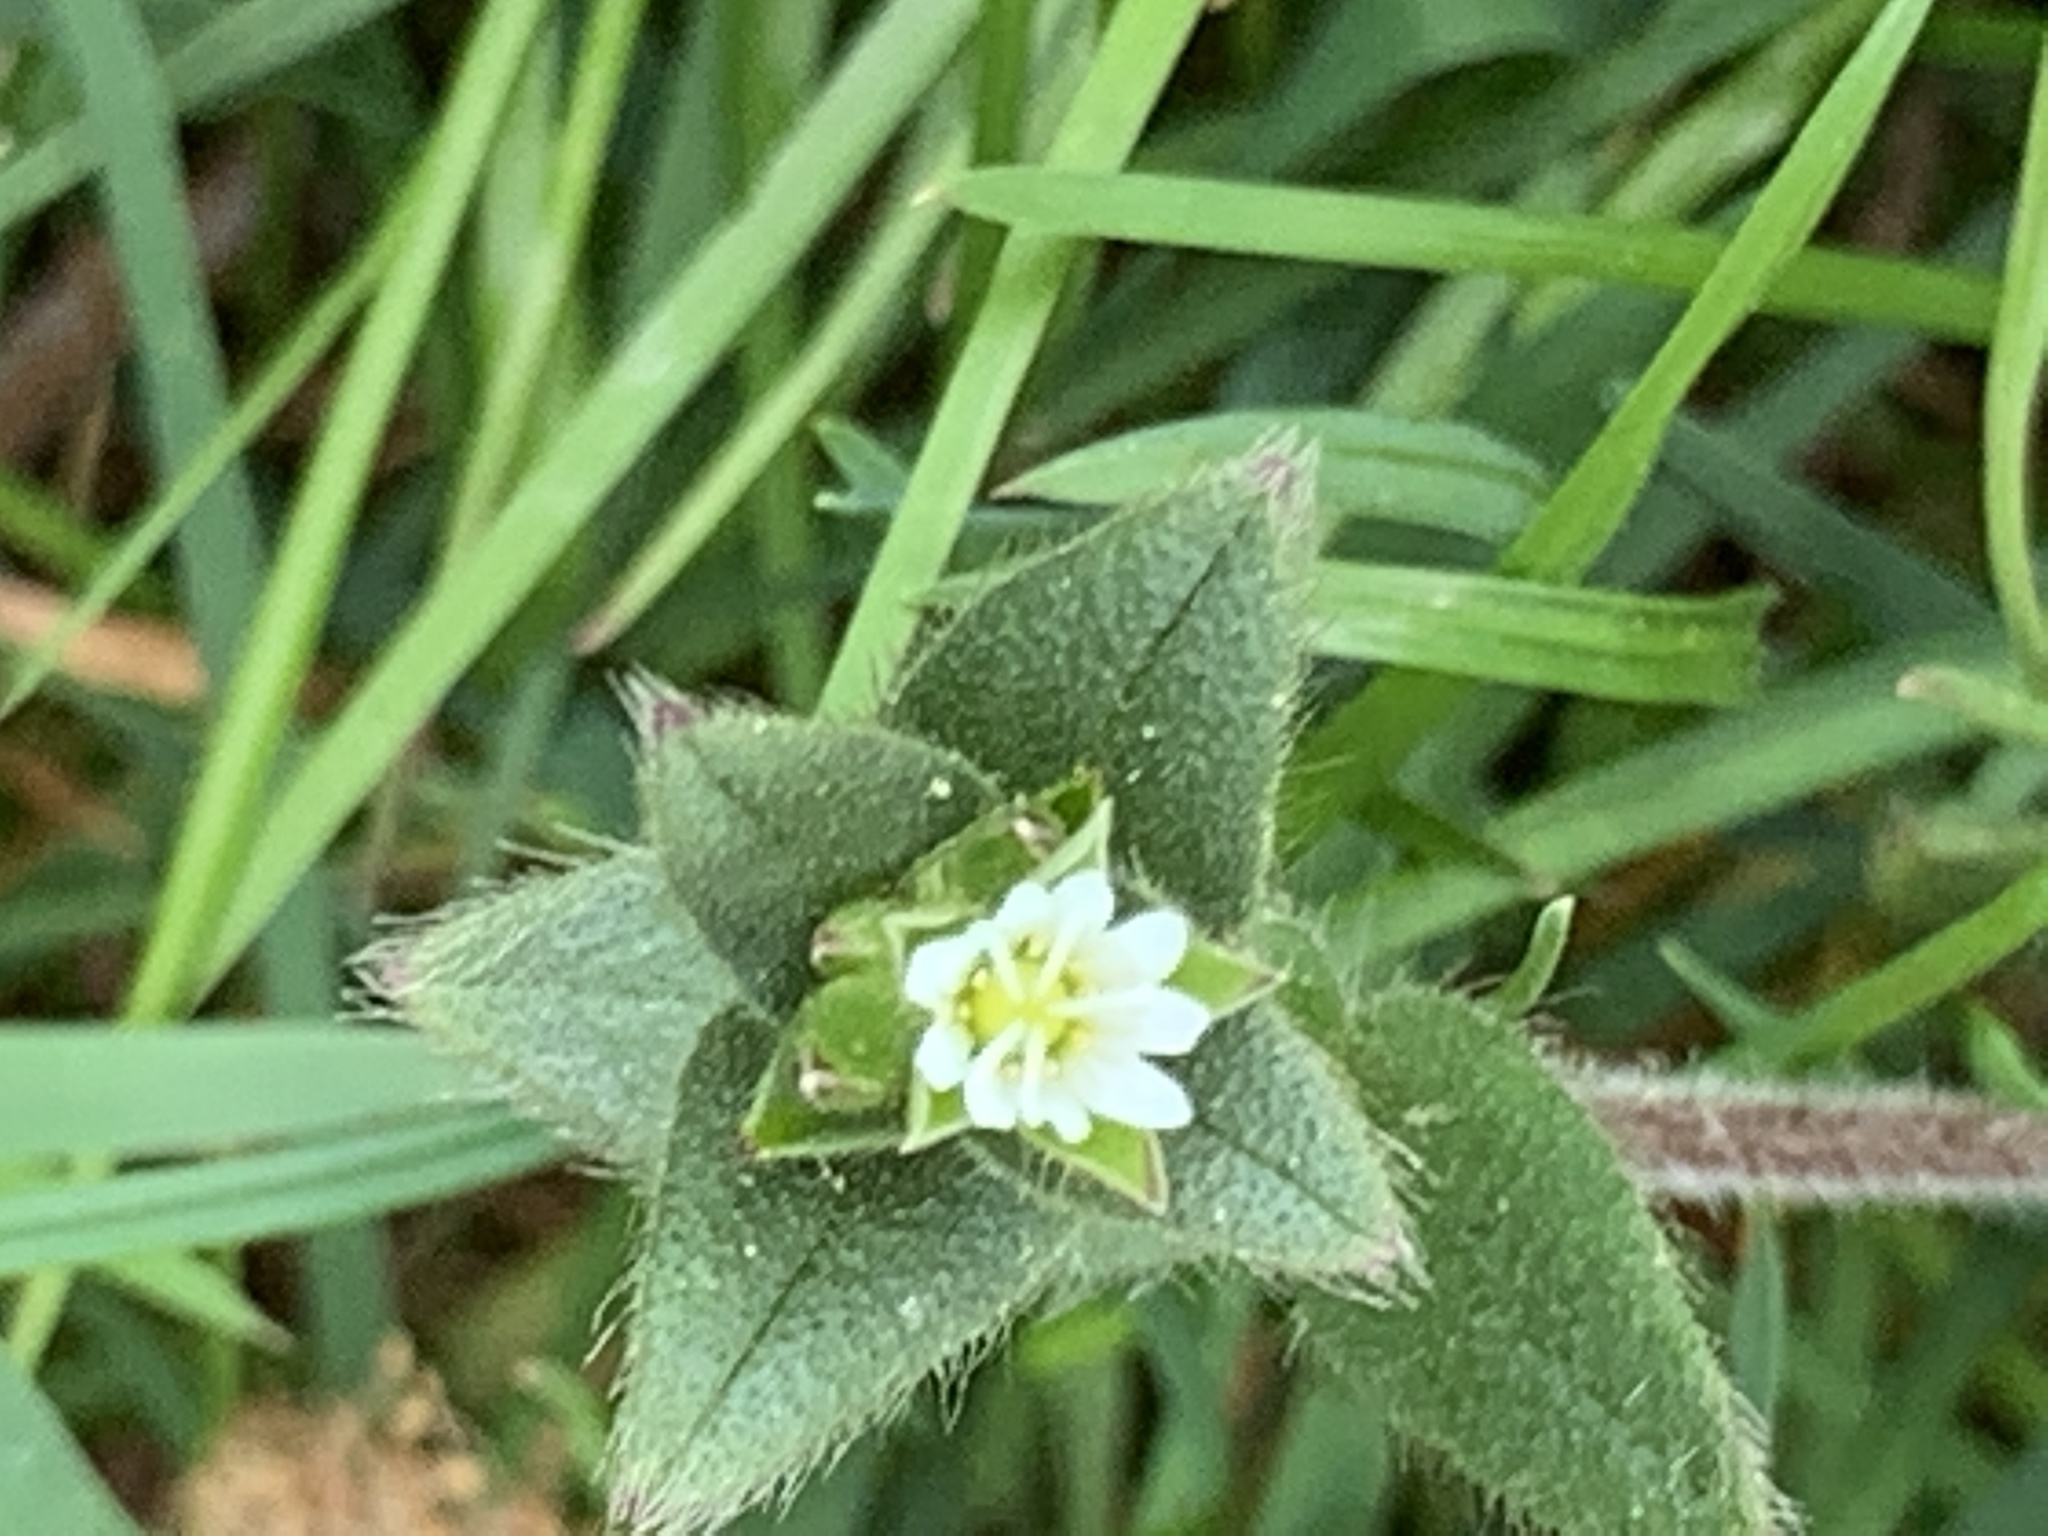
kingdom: Plantae
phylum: Tracheophyta
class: Magnoliopsida
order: Caryophyllales
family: Caryophyllaceae
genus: Cerastium
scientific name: Cerastium fontanum
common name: Common mouse-ear
